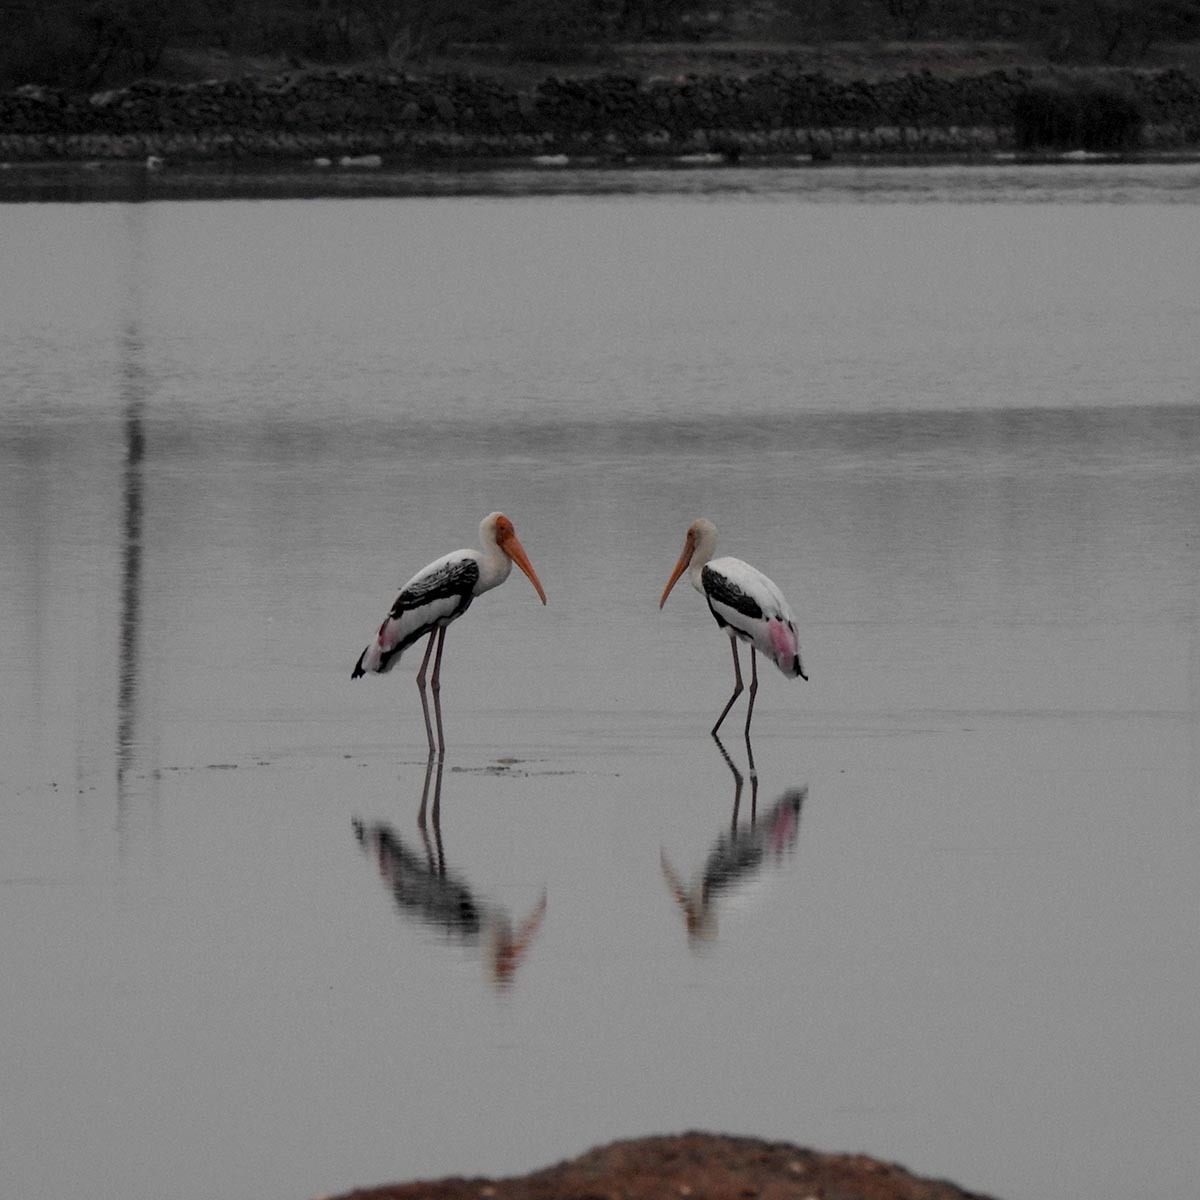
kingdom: Animalia
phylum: Chordata
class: Aves
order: Ciconiiformes
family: Ciconiidae
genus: Mycteria
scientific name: Mycteria leucocephala
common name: Painted stork
